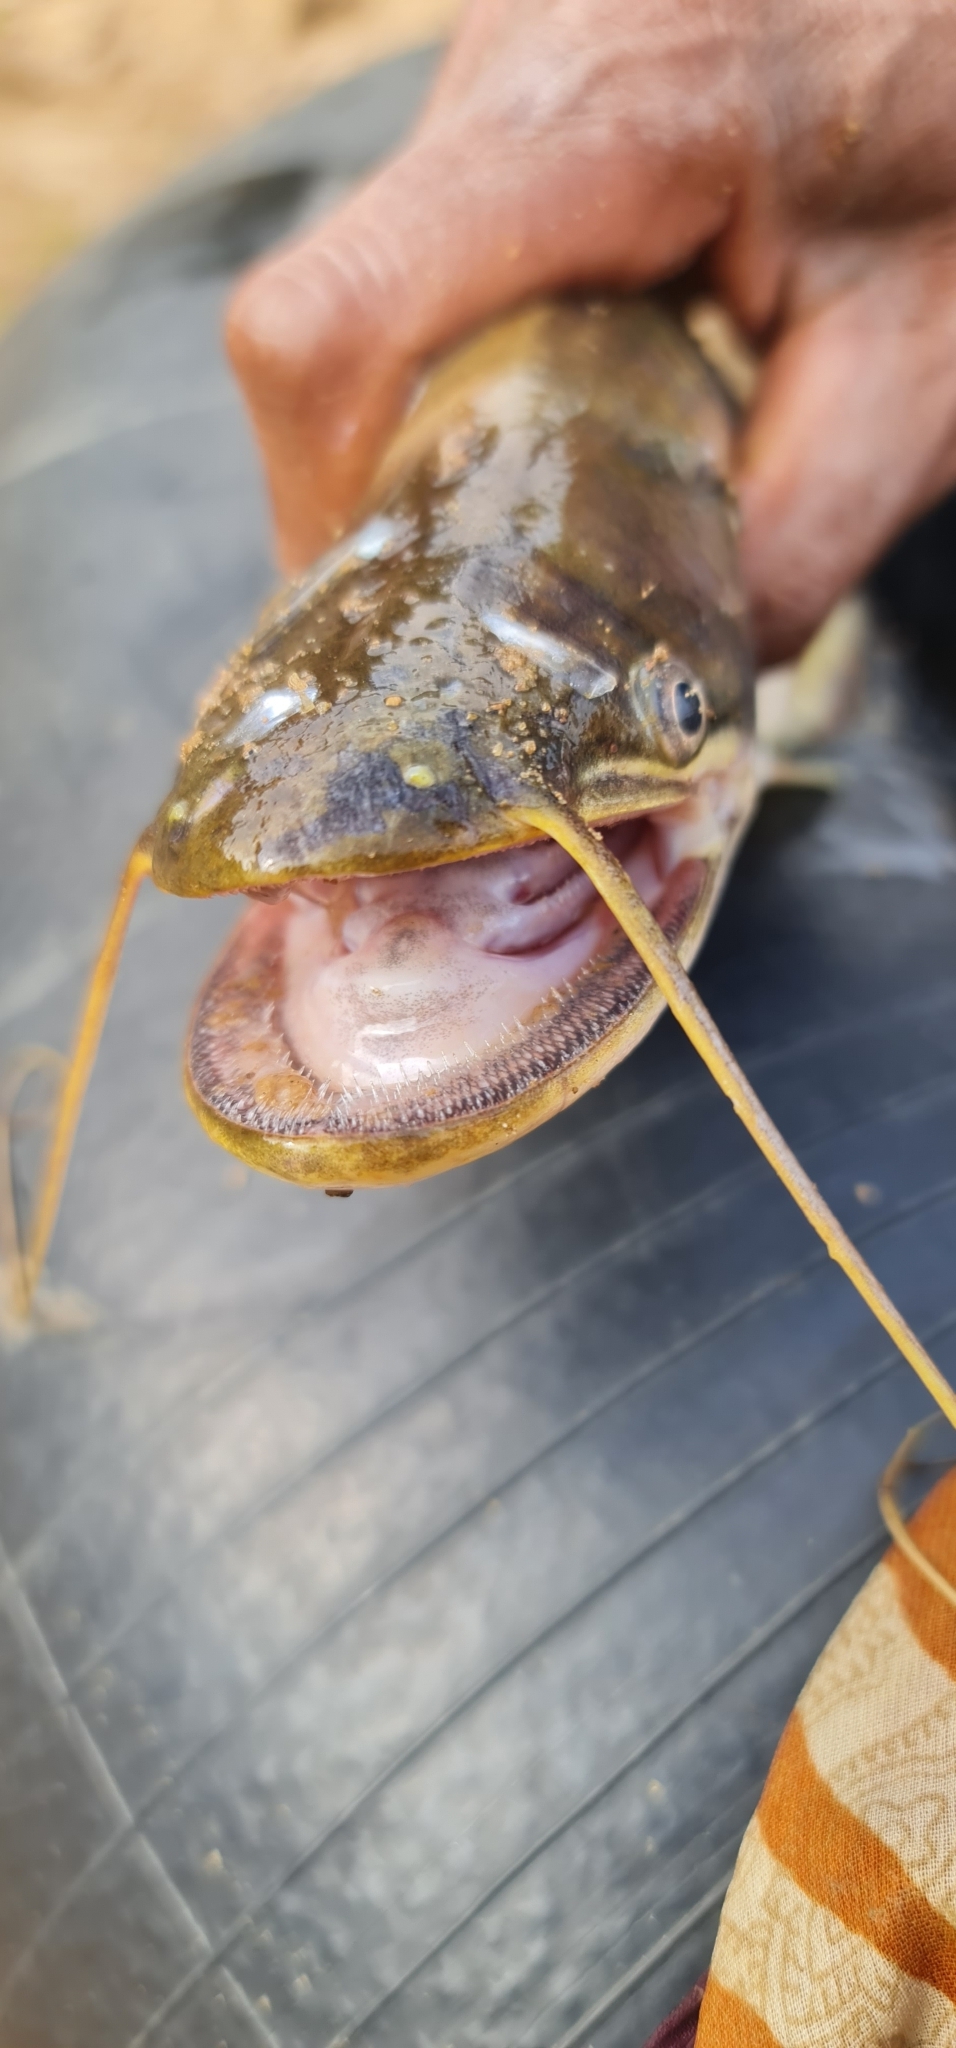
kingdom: Animalia
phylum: Chordata
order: Siluriformes
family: Siluridae
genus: Wallago
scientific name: Wallago attu
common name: Freshwater shark
